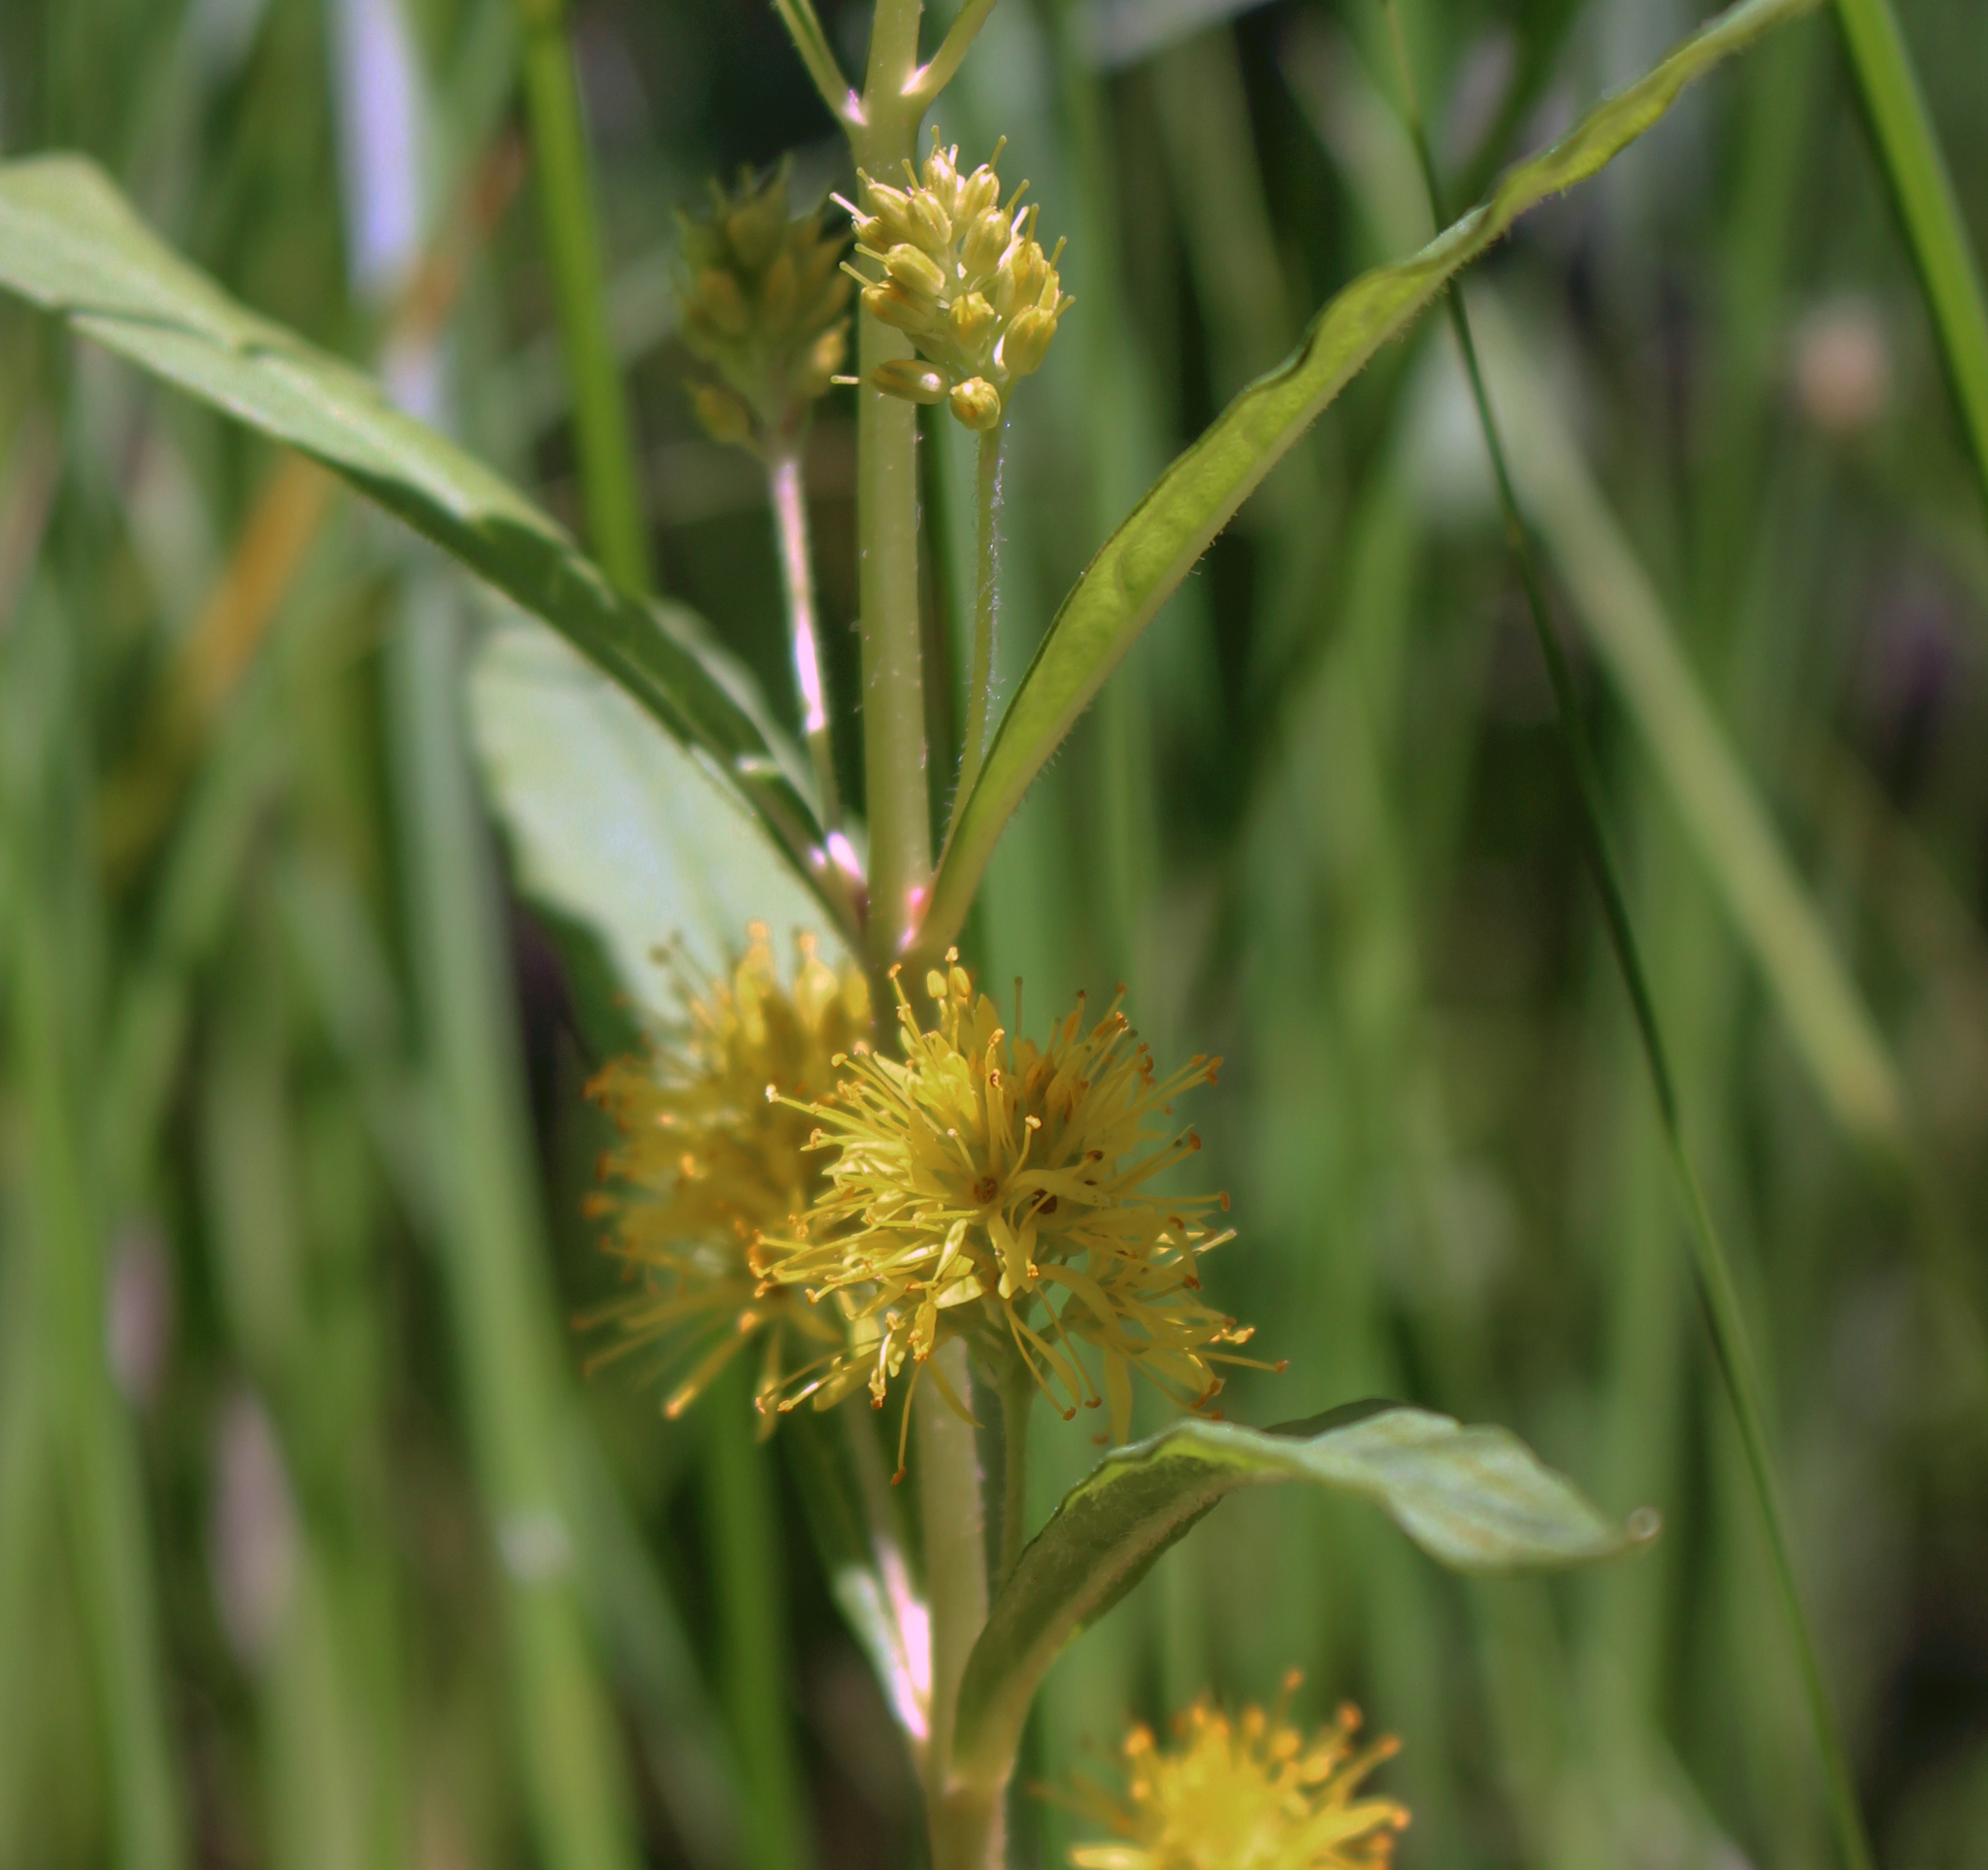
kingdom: Plantae
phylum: Tracheophyta
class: Magnoliopsida
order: Ericales
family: Primulaceae
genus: Lysimachia
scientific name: Lysimachia thyrsiflora
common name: Tufted loosestrife
